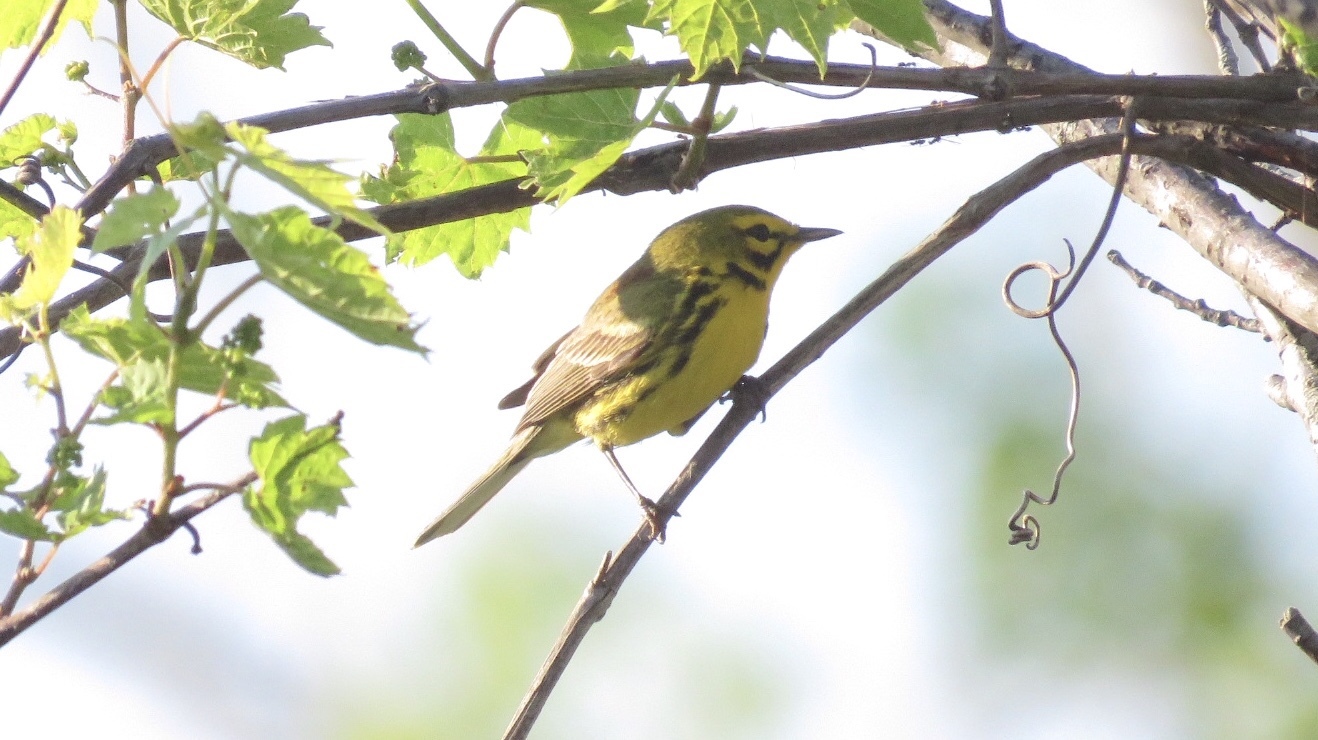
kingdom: Animalia
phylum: Chordata
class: Aves
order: Passeriformes
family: Parulidae
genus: Setophaga
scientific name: Setophaga discolor
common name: Prairie warbler
